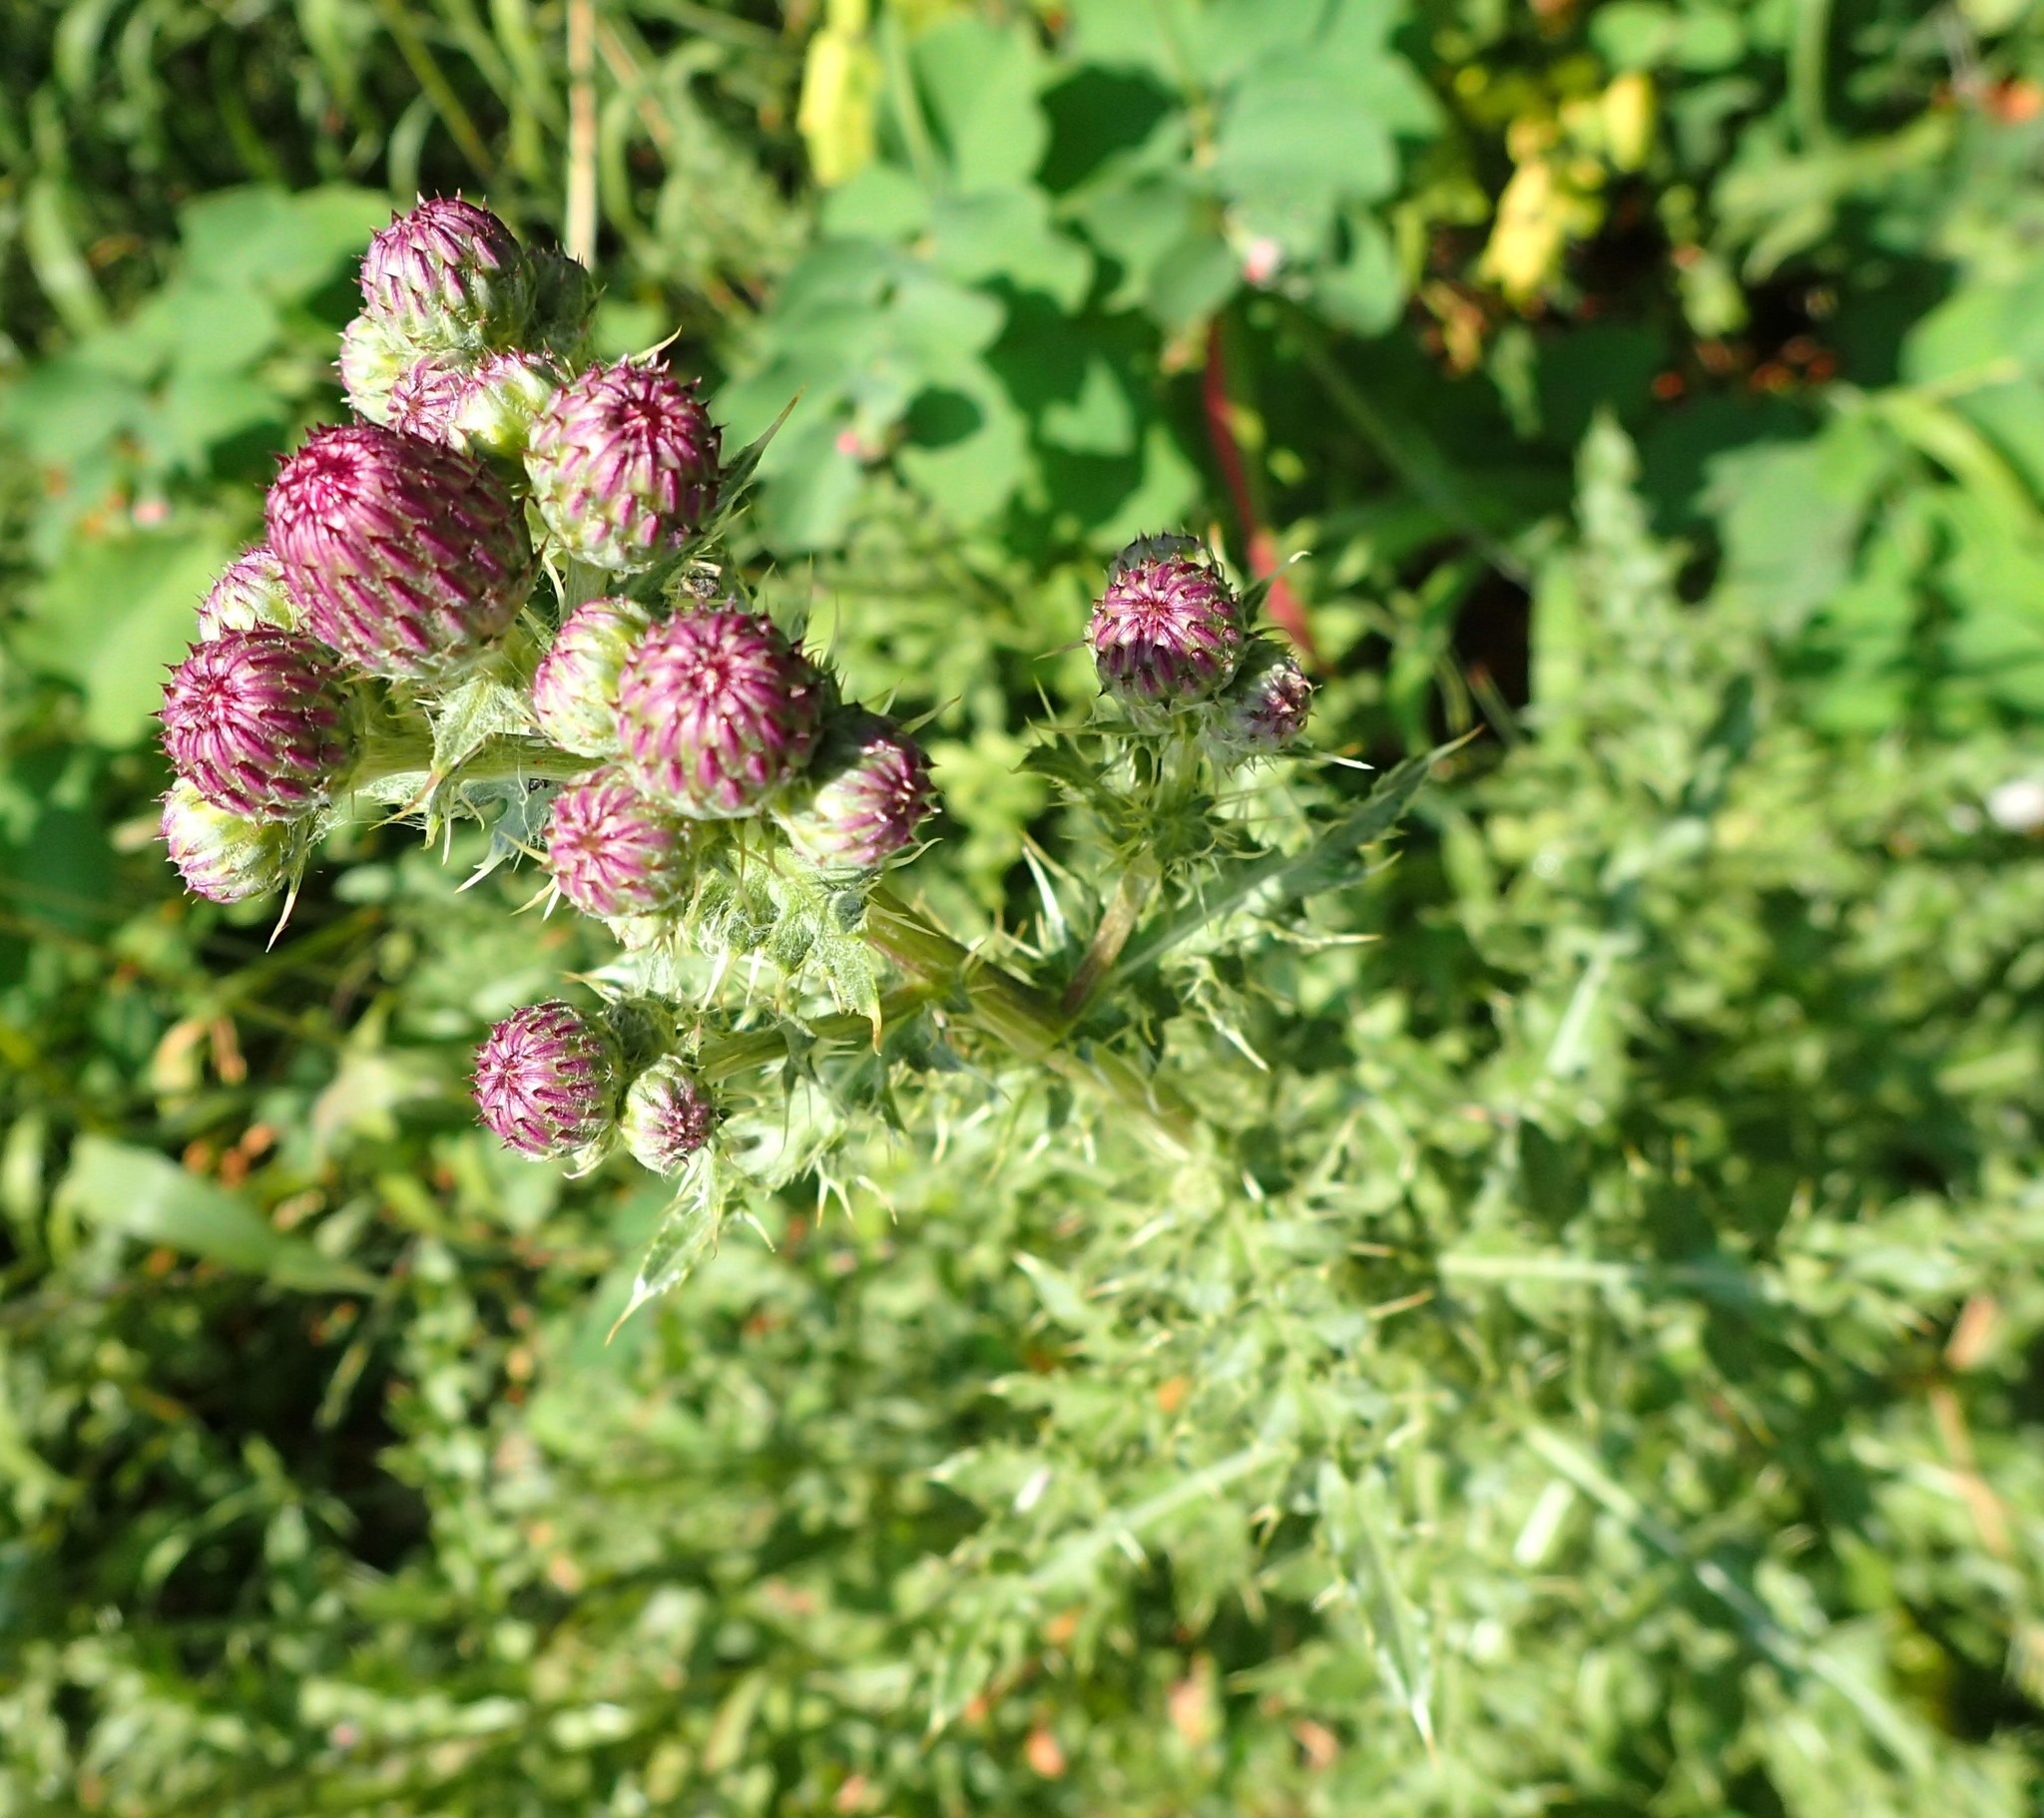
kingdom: Plantae
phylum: Tracheophyta
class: Magnoliopsida
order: Asterales
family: Asteraceae
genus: Cirsium
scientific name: Cirsium arvense
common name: Creeping thistle
